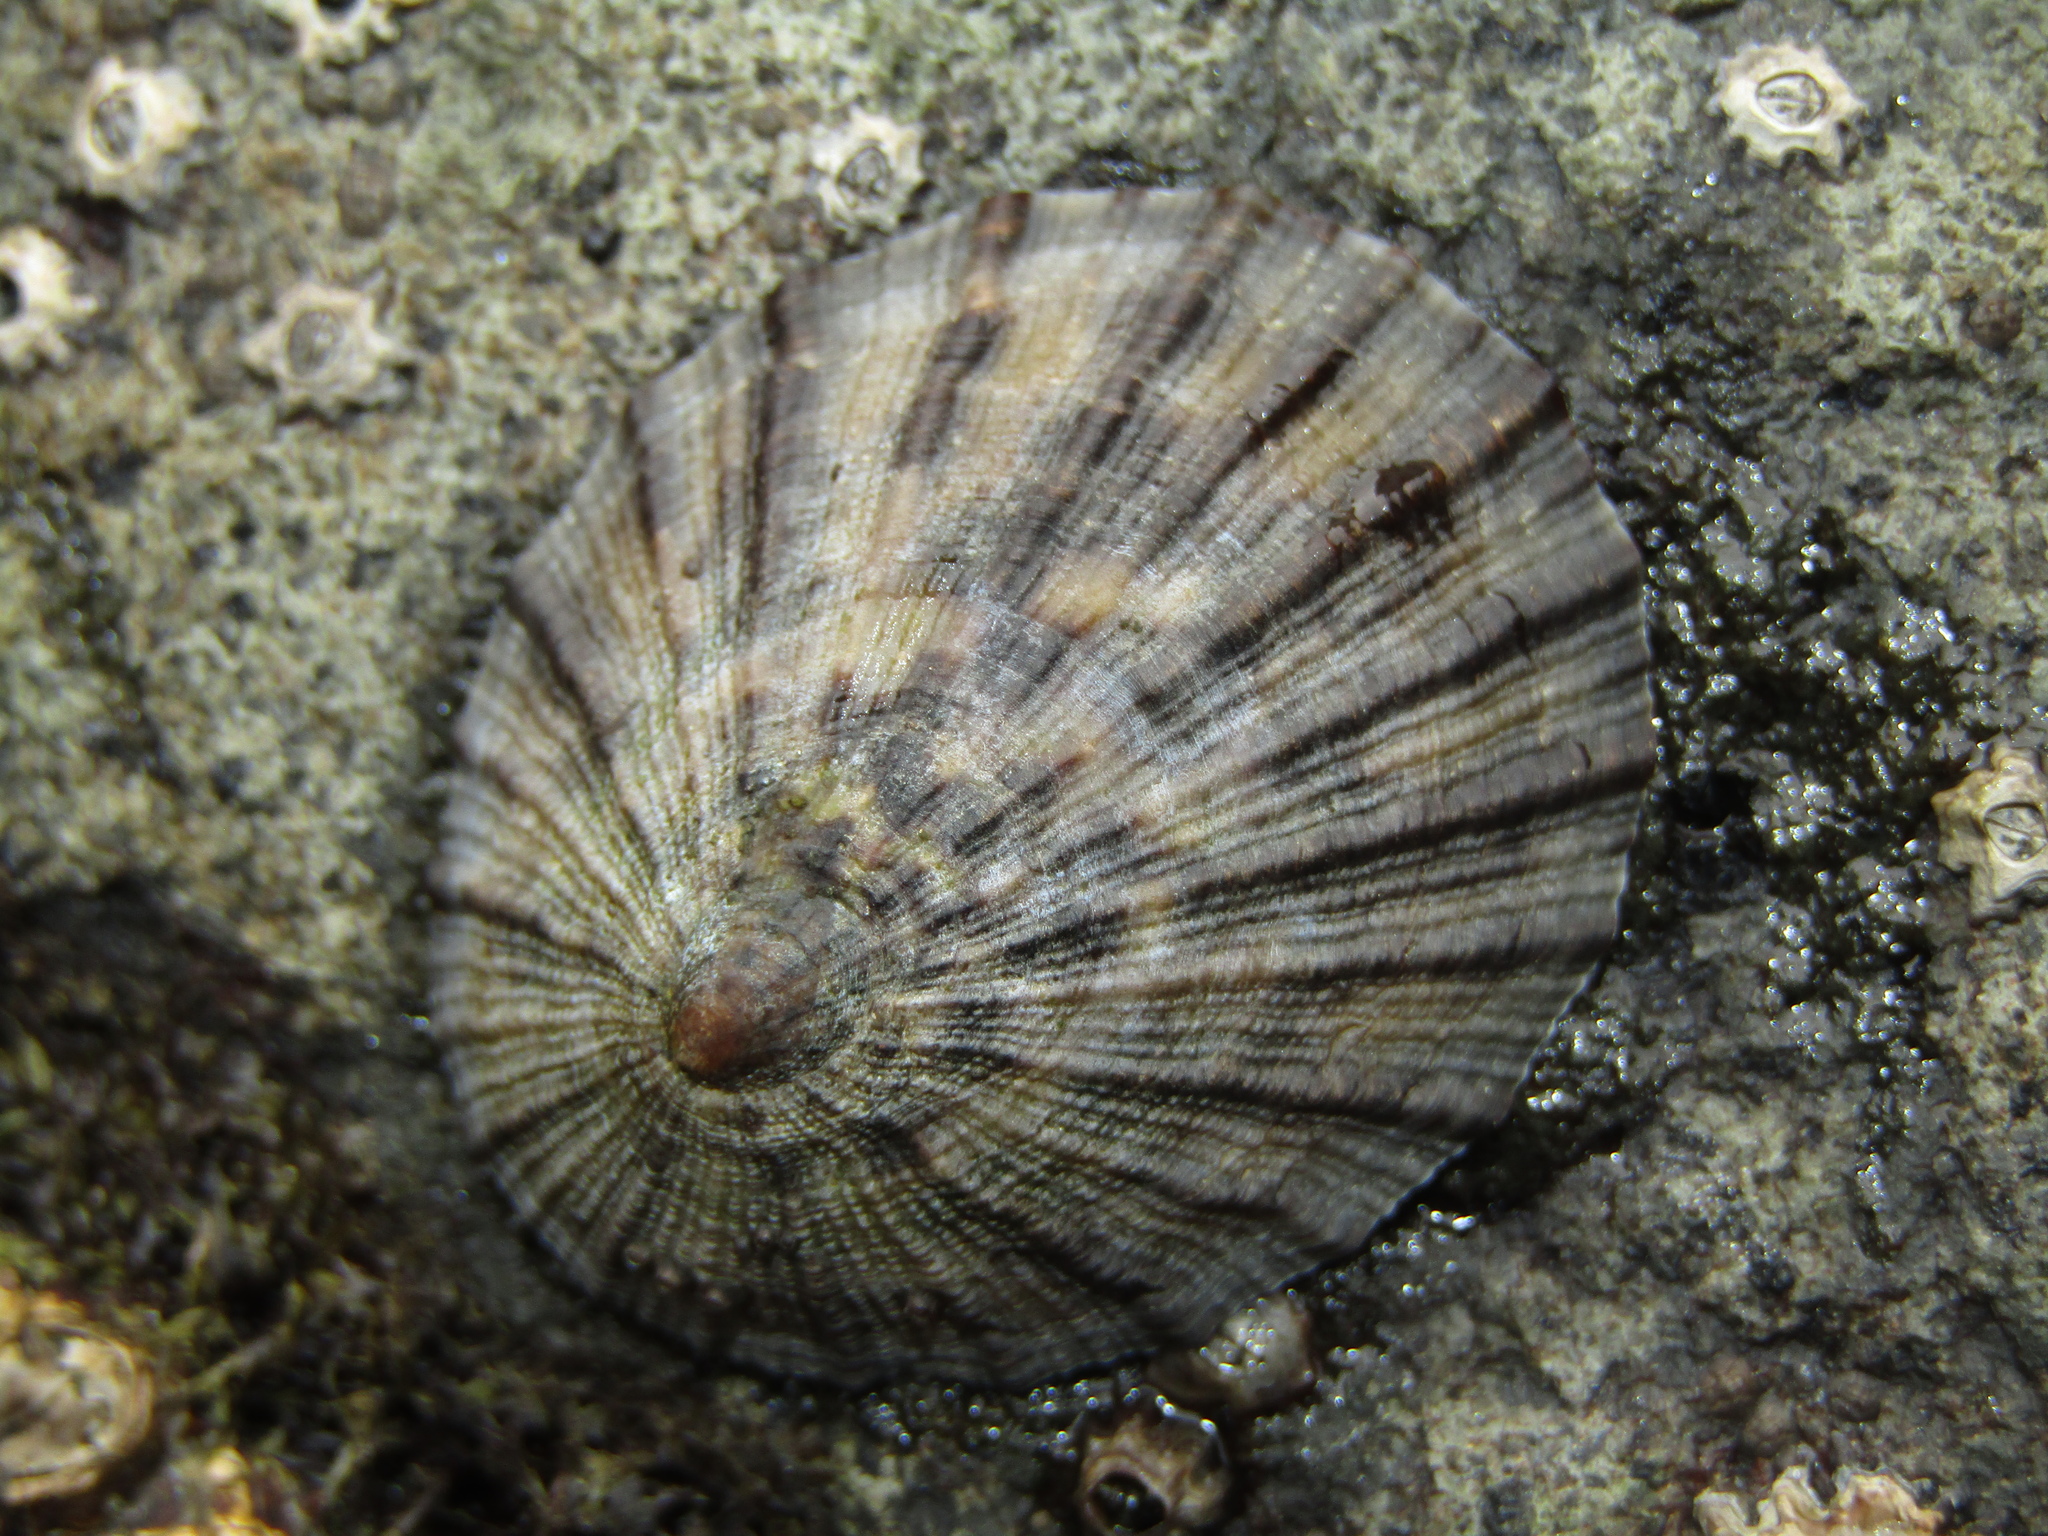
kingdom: Animalia
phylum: Mollusca
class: Gastropoda
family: Nacellidae
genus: Cellana
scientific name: Cellana radians
